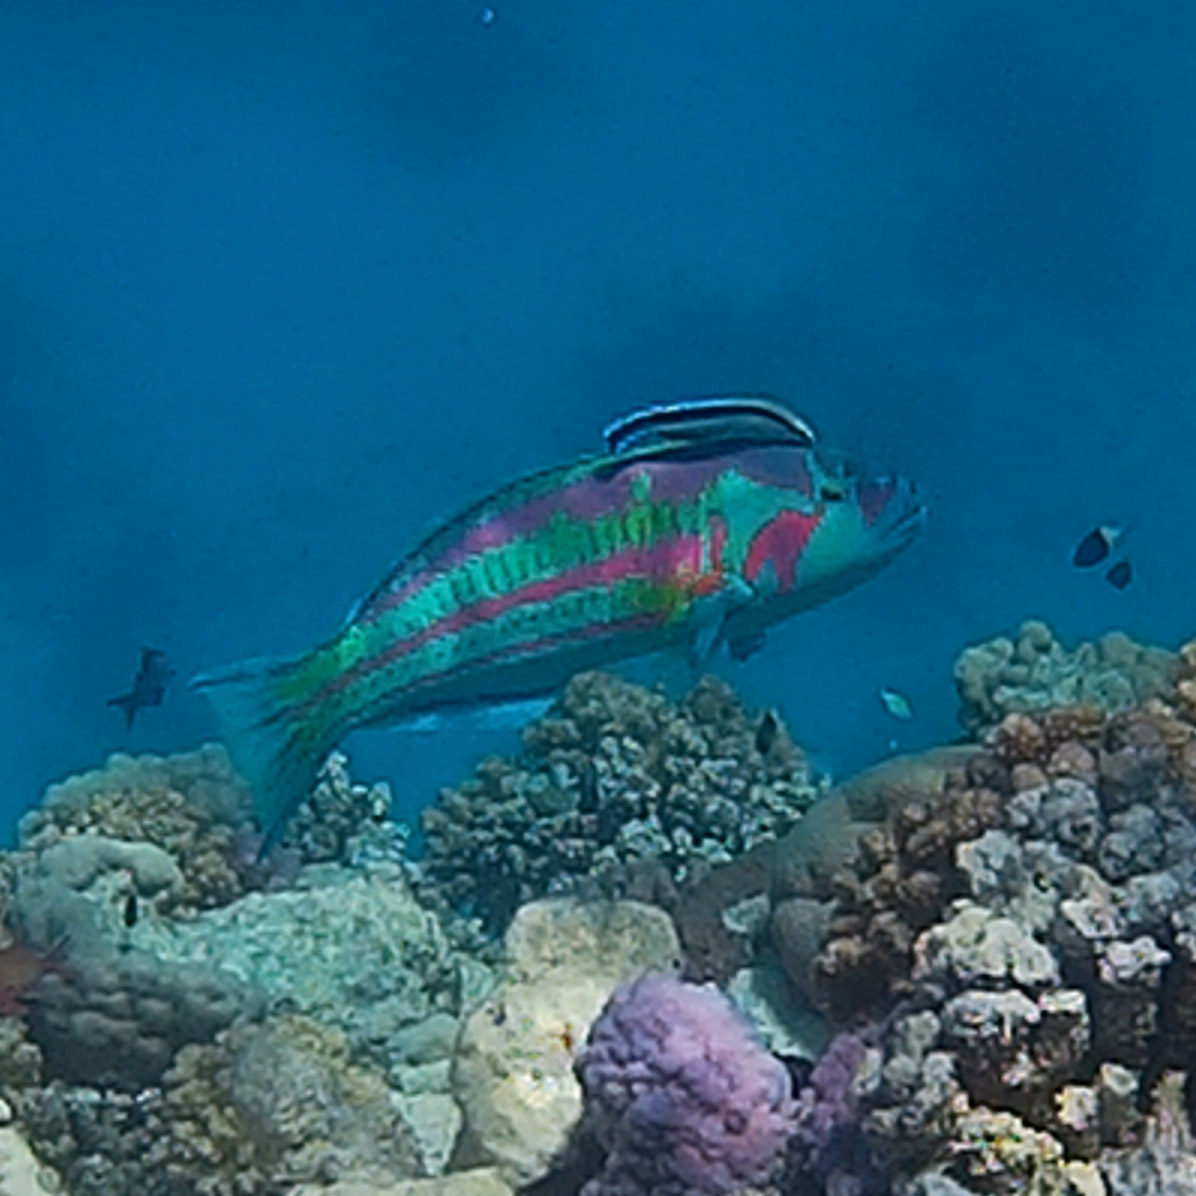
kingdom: Animalia
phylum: Chordata
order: Perciformes
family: Labridae
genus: Thalassoma
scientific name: Thalassoma purpureum
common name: Parrotfish
